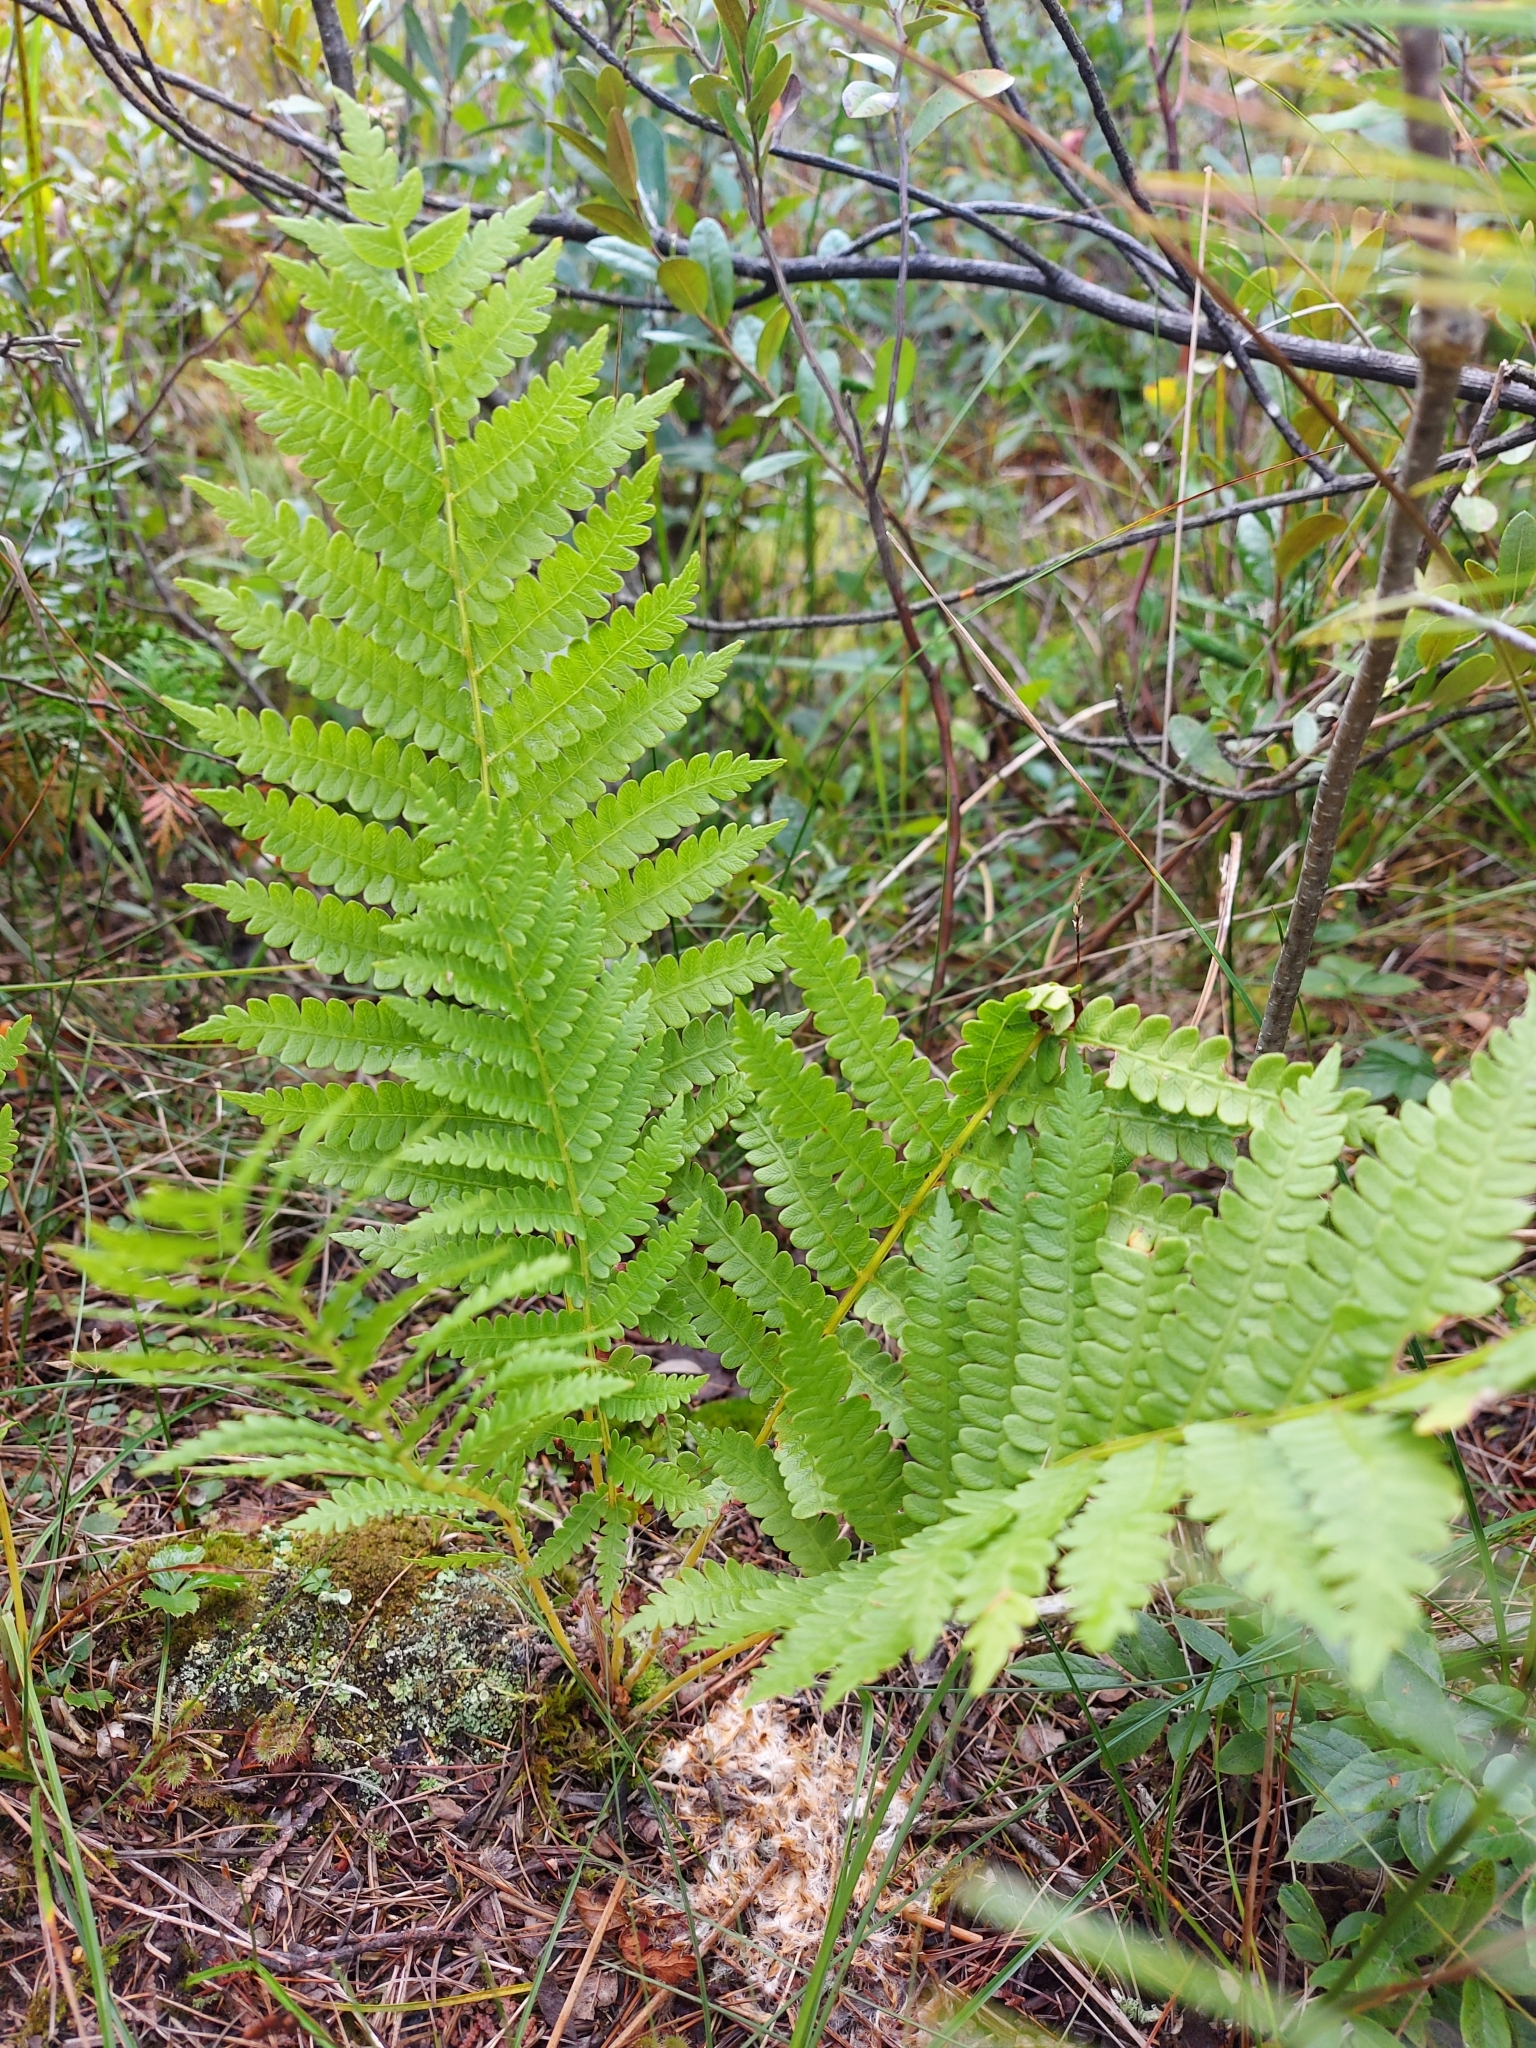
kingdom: Plantae
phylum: Tracheophyta
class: Polypodiopsida
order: Osmundales
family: Osmundaceae
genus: Osmundastrum
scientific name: Osmundastrum cinnamomeum
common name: Cinnamon fern
